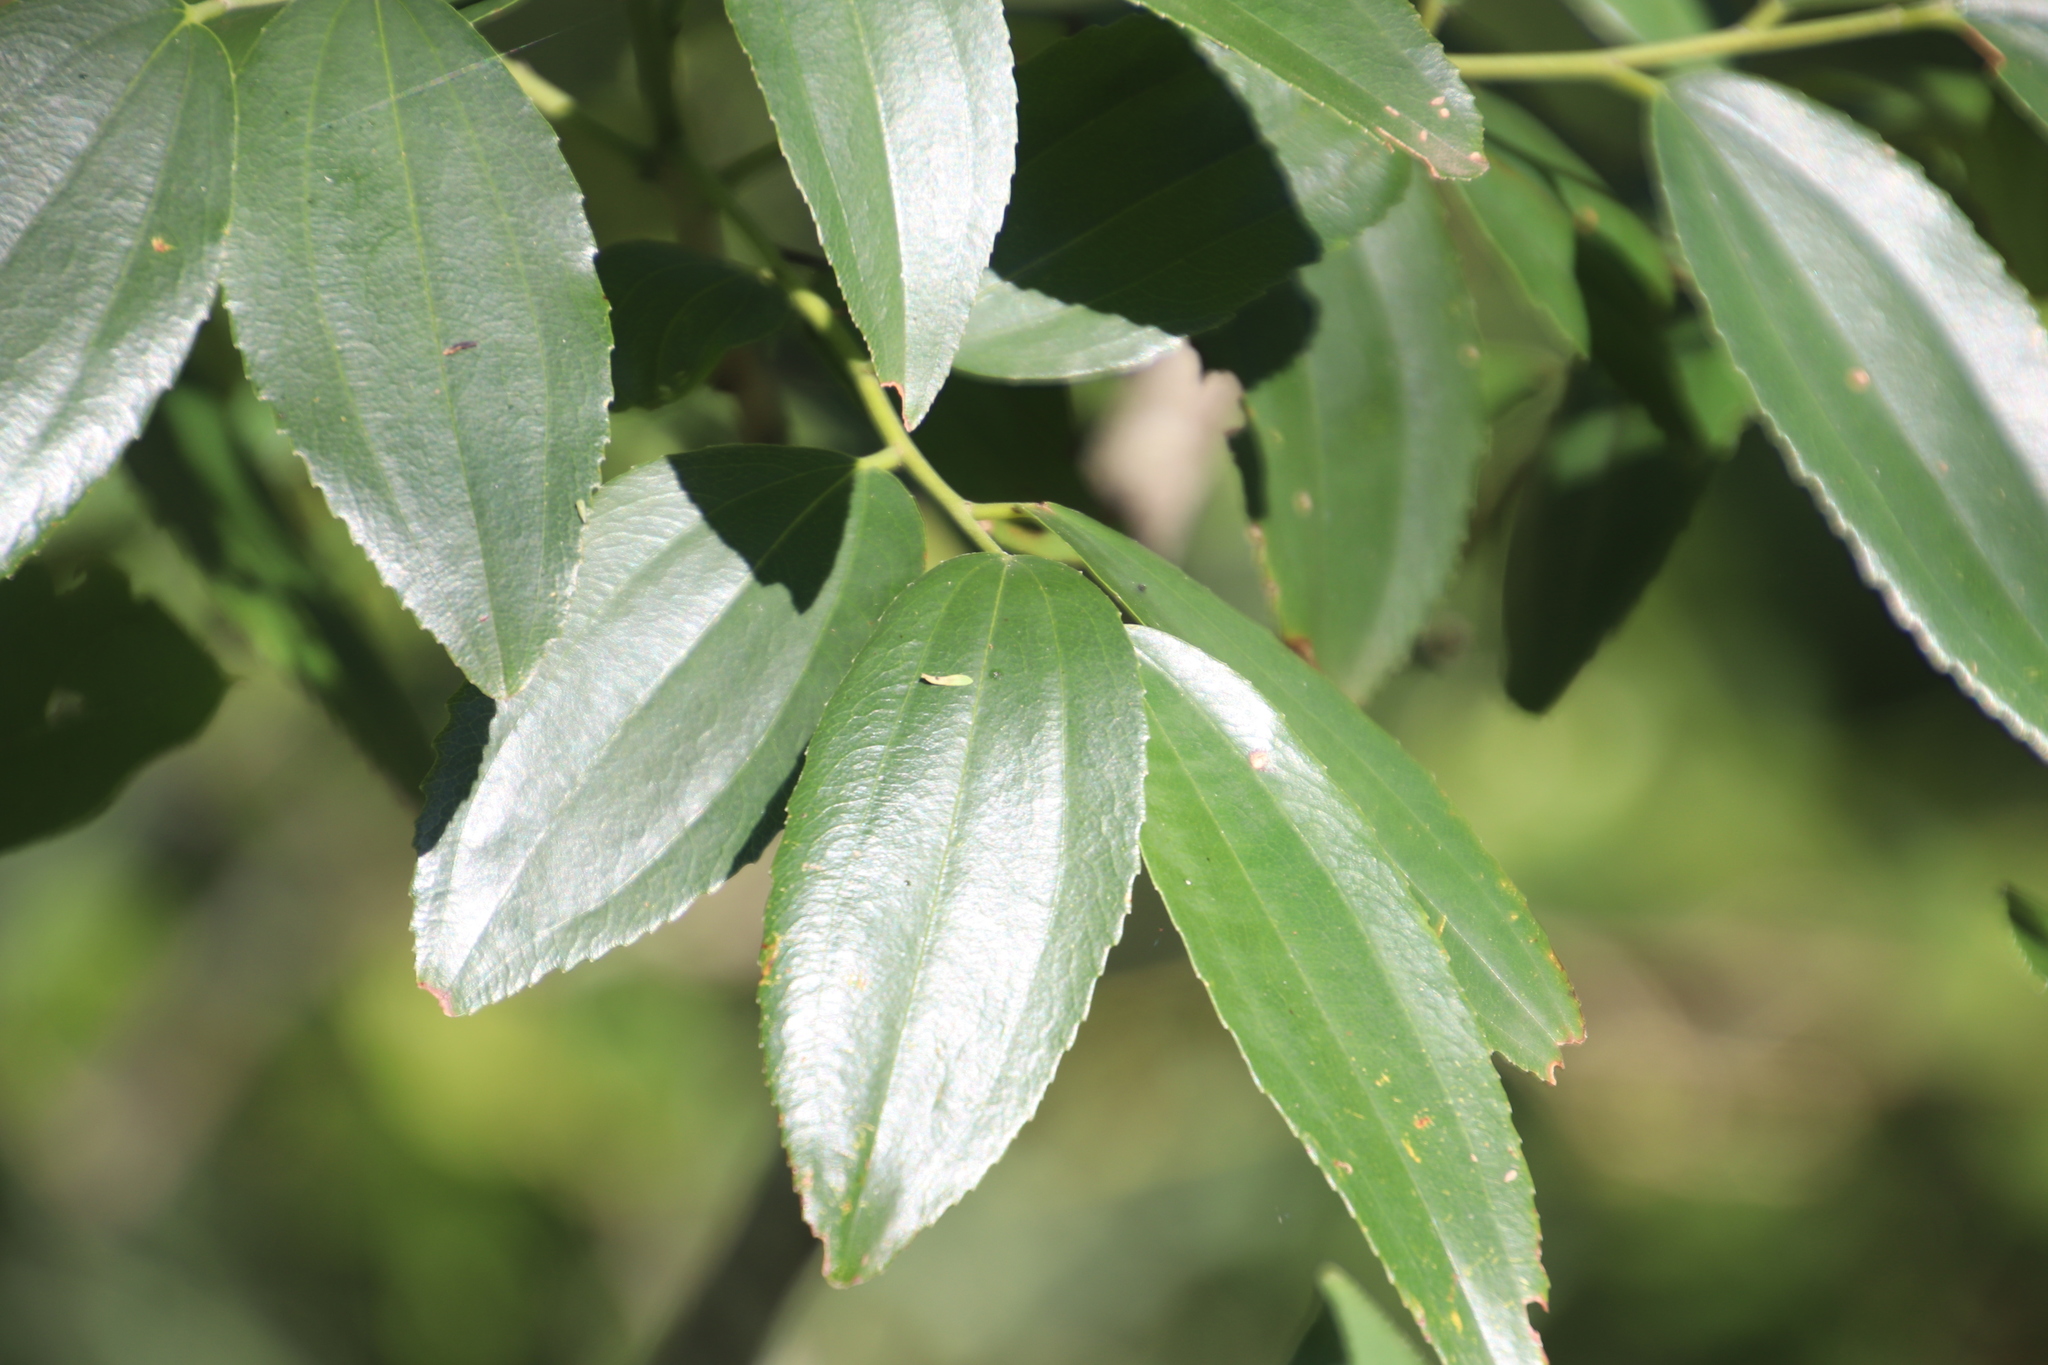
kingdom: Plantae
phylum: Tracheophyta
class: Magnoliopsida
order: Rosales
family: Rhamnaceae
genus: Ziziphus
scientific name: Ziziphus rivularis
